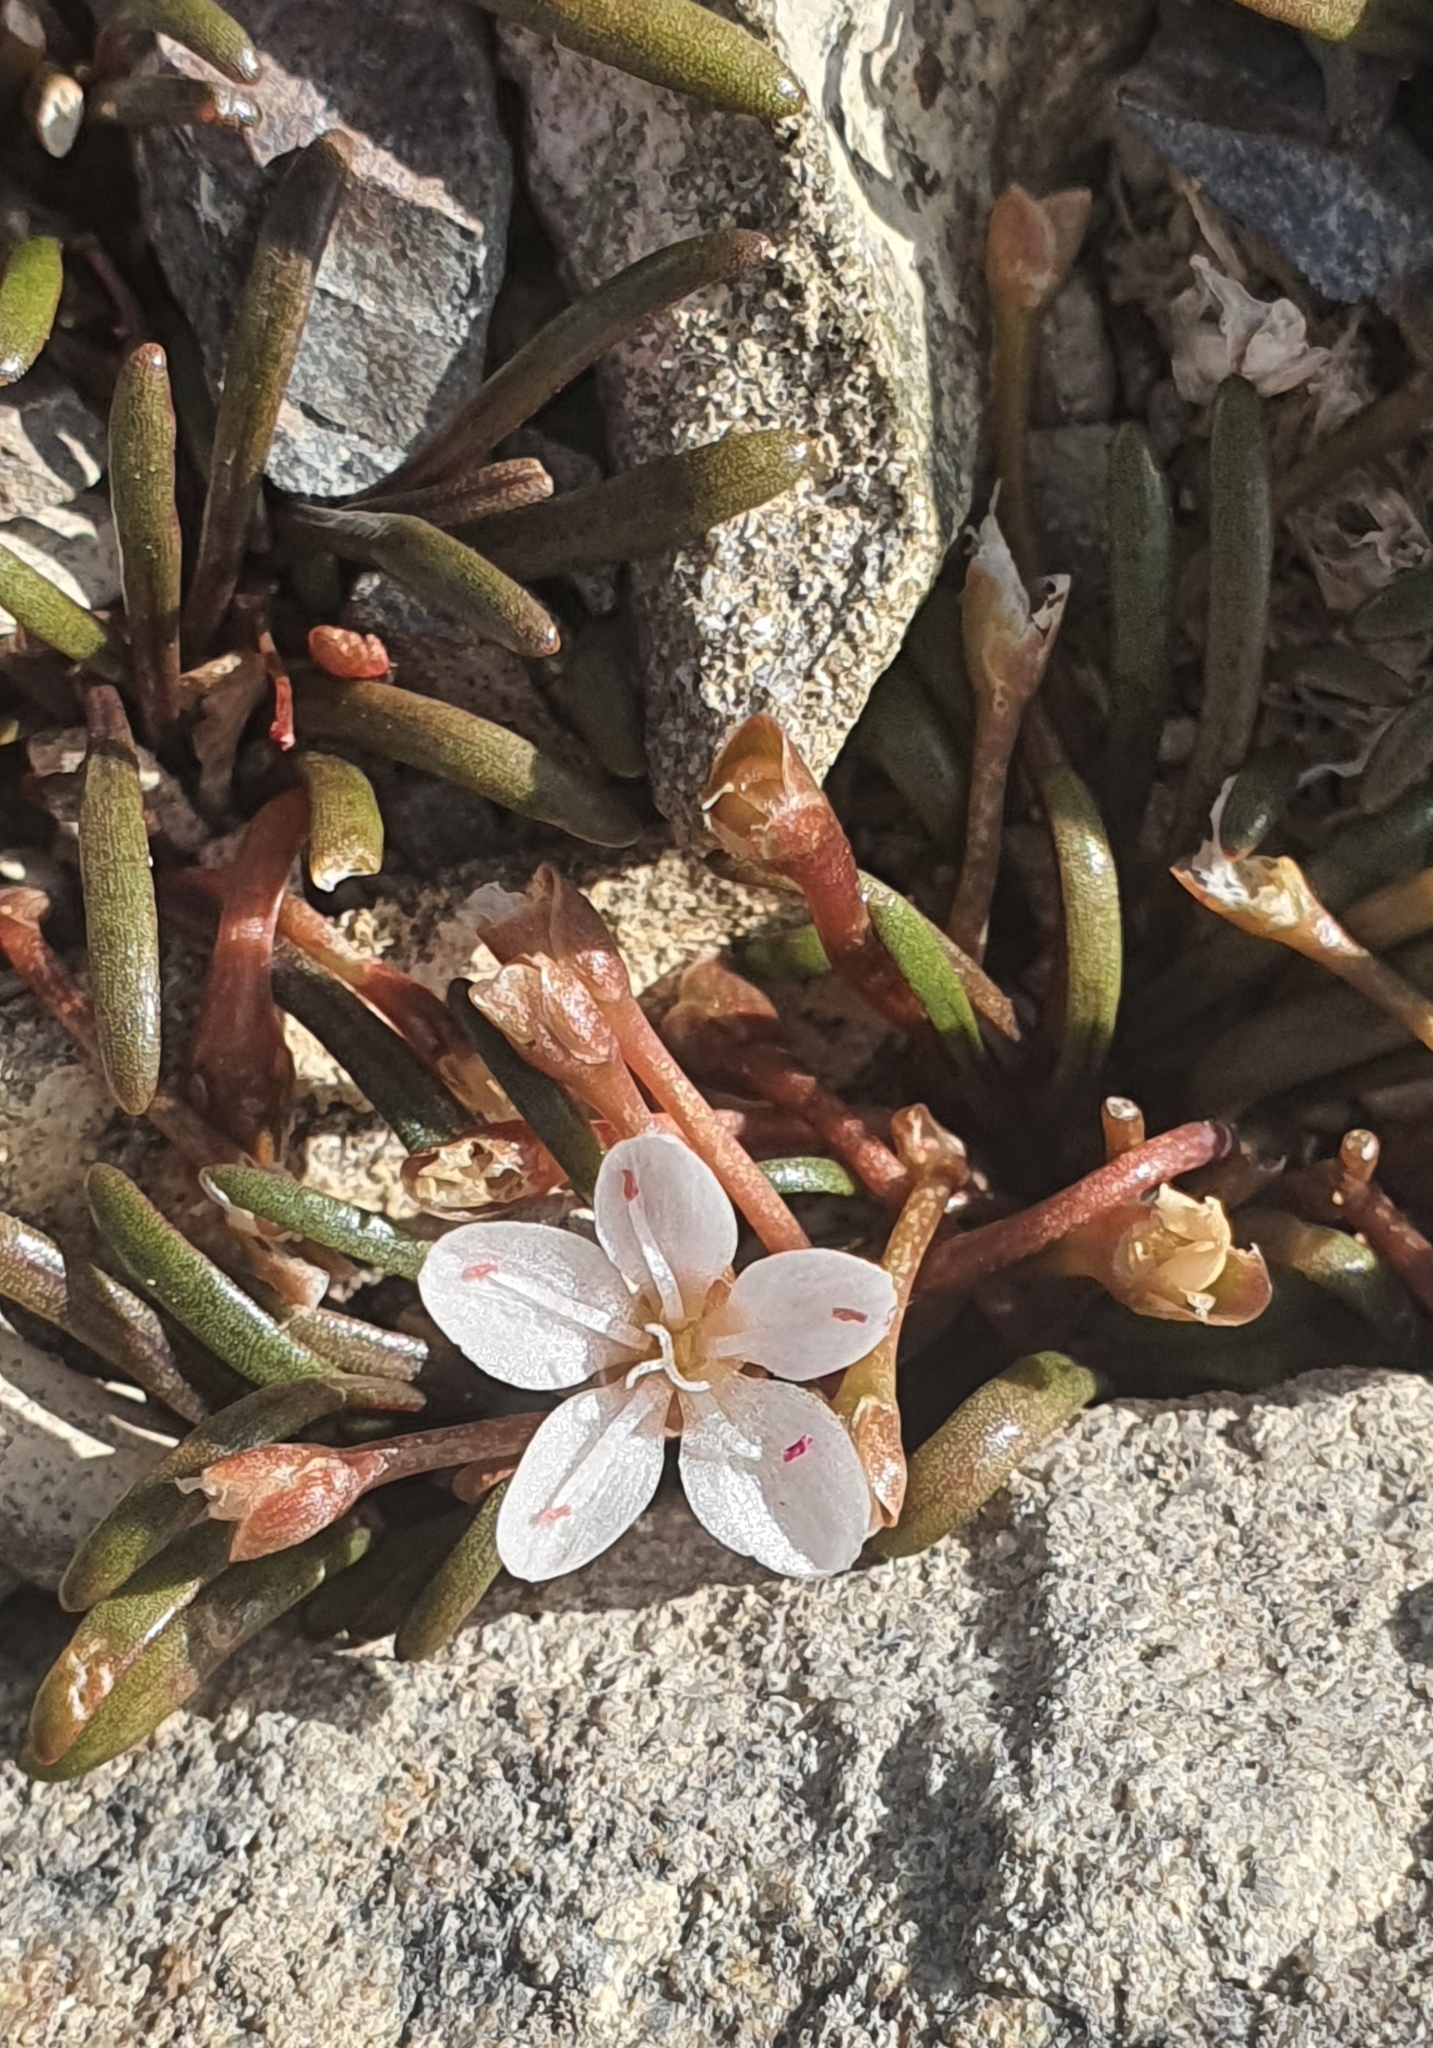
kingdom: Plantae
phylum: Tracheophyta
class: Magnoliopsida
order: Caryophyllales
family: Montiaceae
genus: Montia
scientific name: Montia calycina
